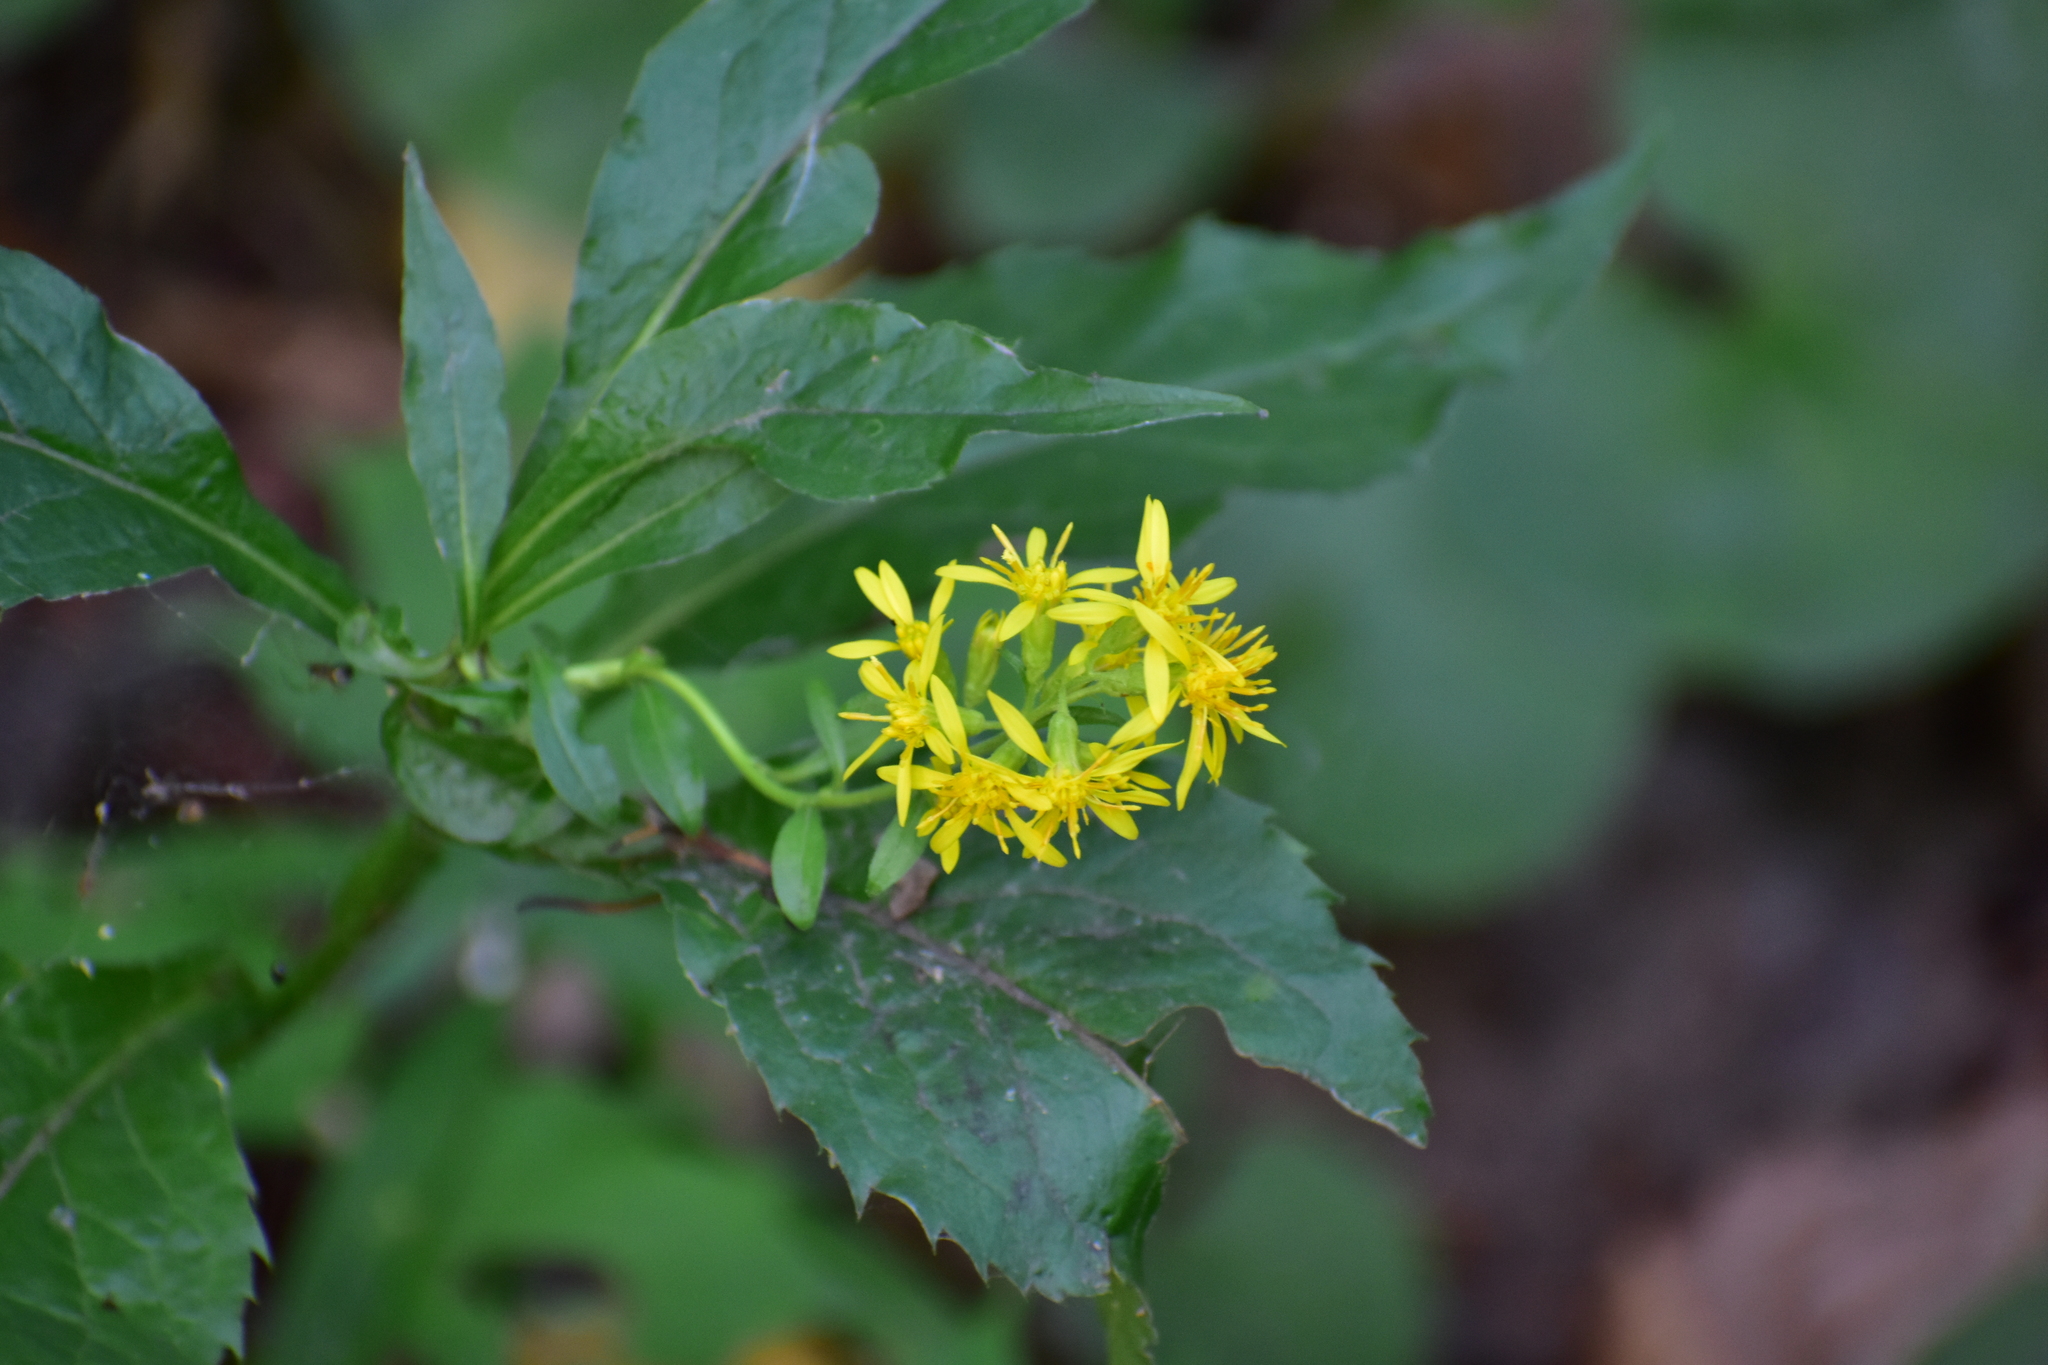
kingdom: Plantae
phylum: Tracheophyta
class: Magnoliopsida
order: Asterales
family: Asteraceae
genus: Solidago
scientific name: Solidago virgaurea
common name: Goldenrod
